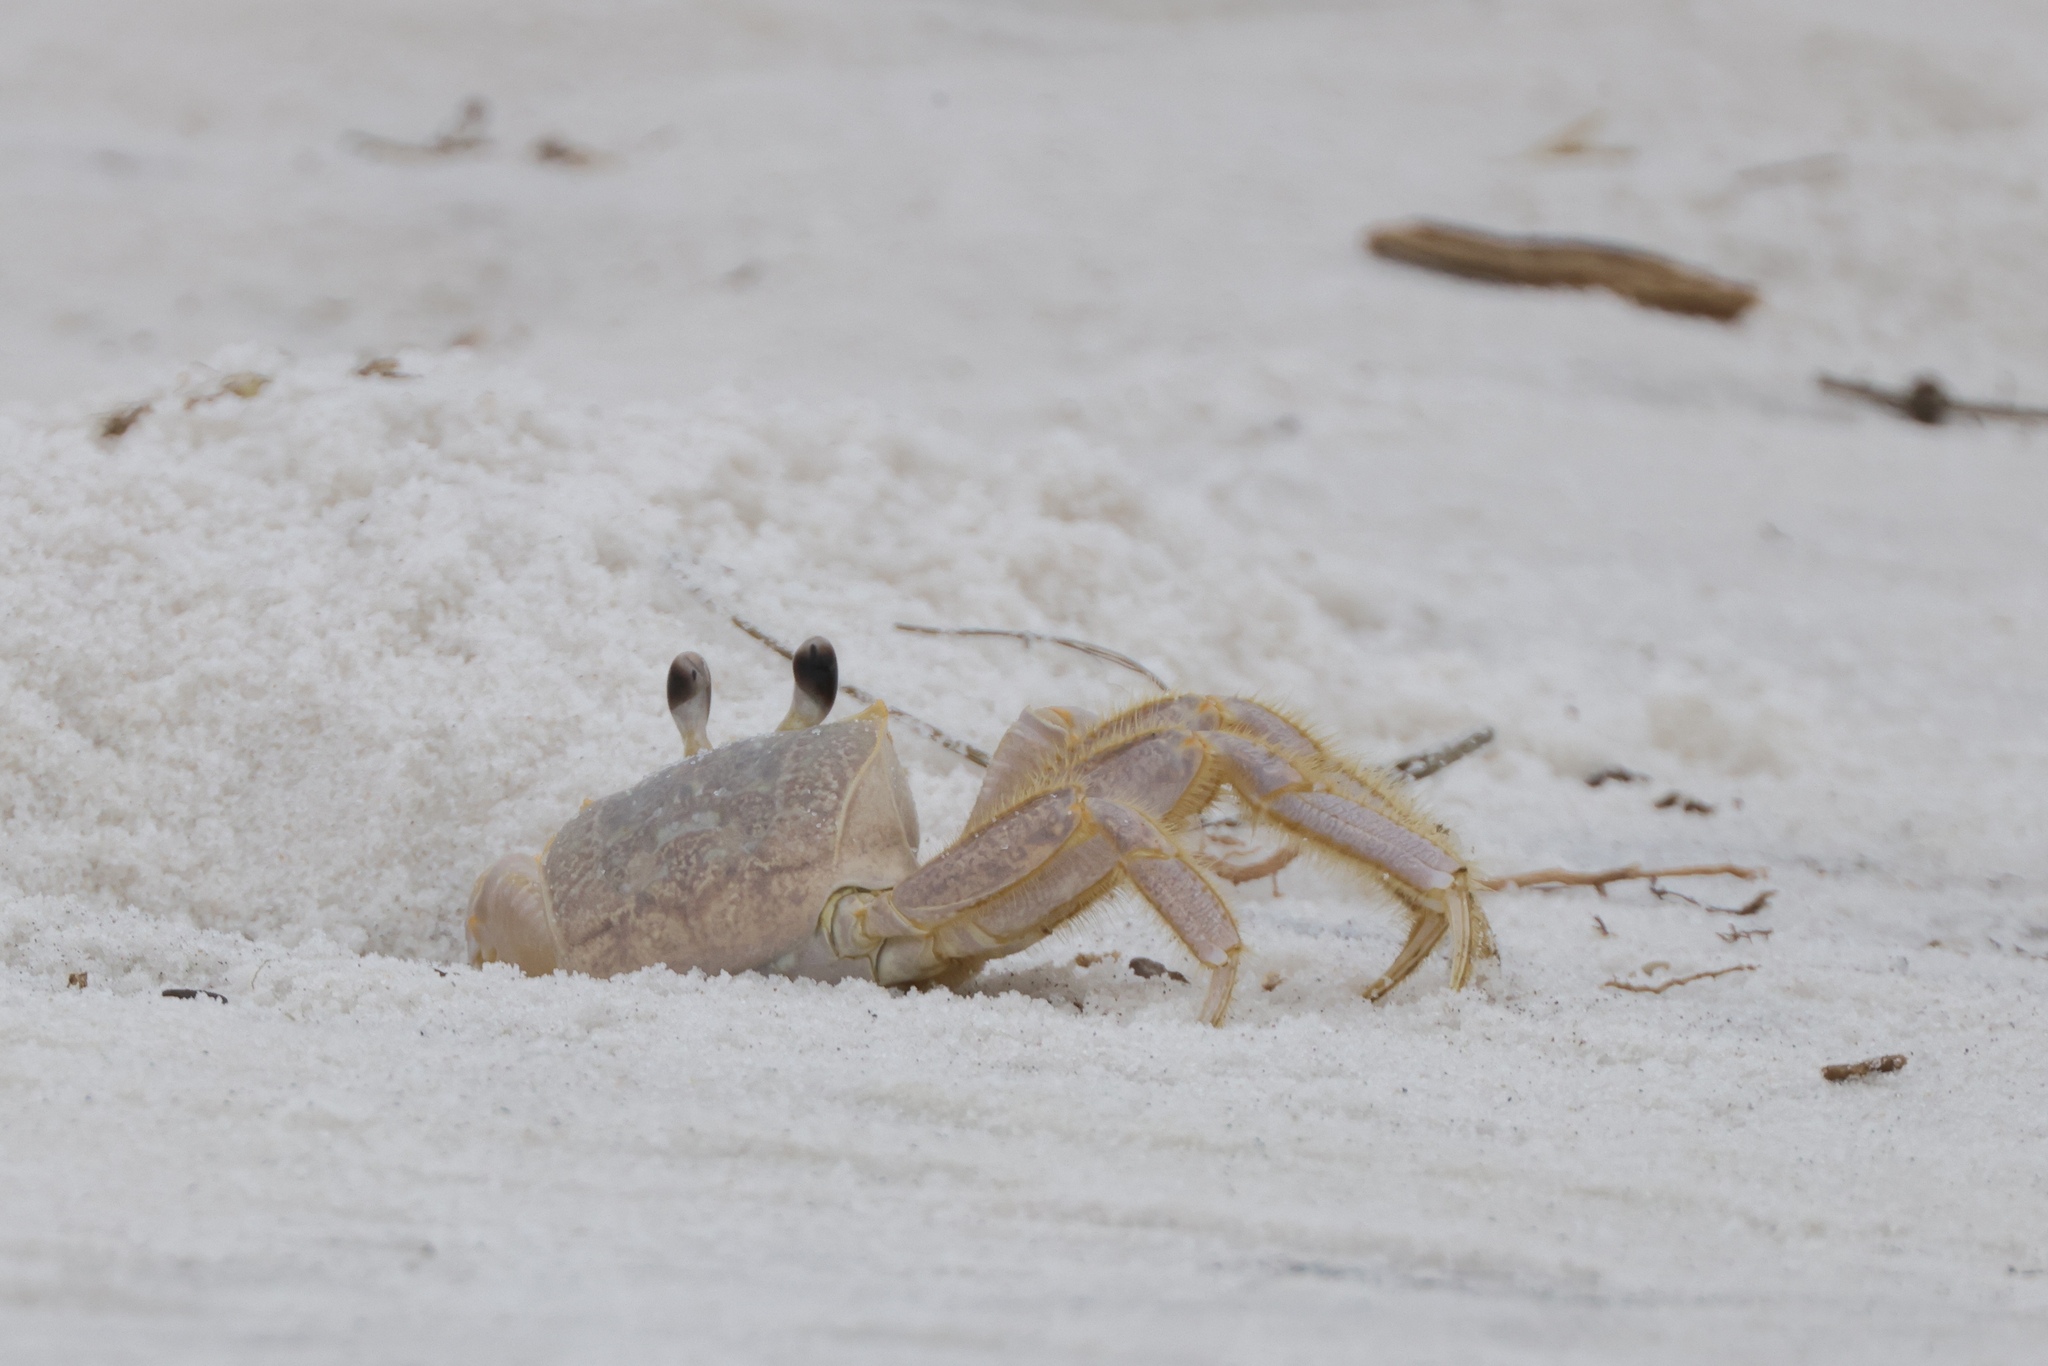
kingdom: Animalia
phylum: Arthropoda
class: Malacostraca
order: Decapoda
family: Ocypodidae
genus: Ocypode
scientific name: Ocypode quadrata
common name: Ghost crab
